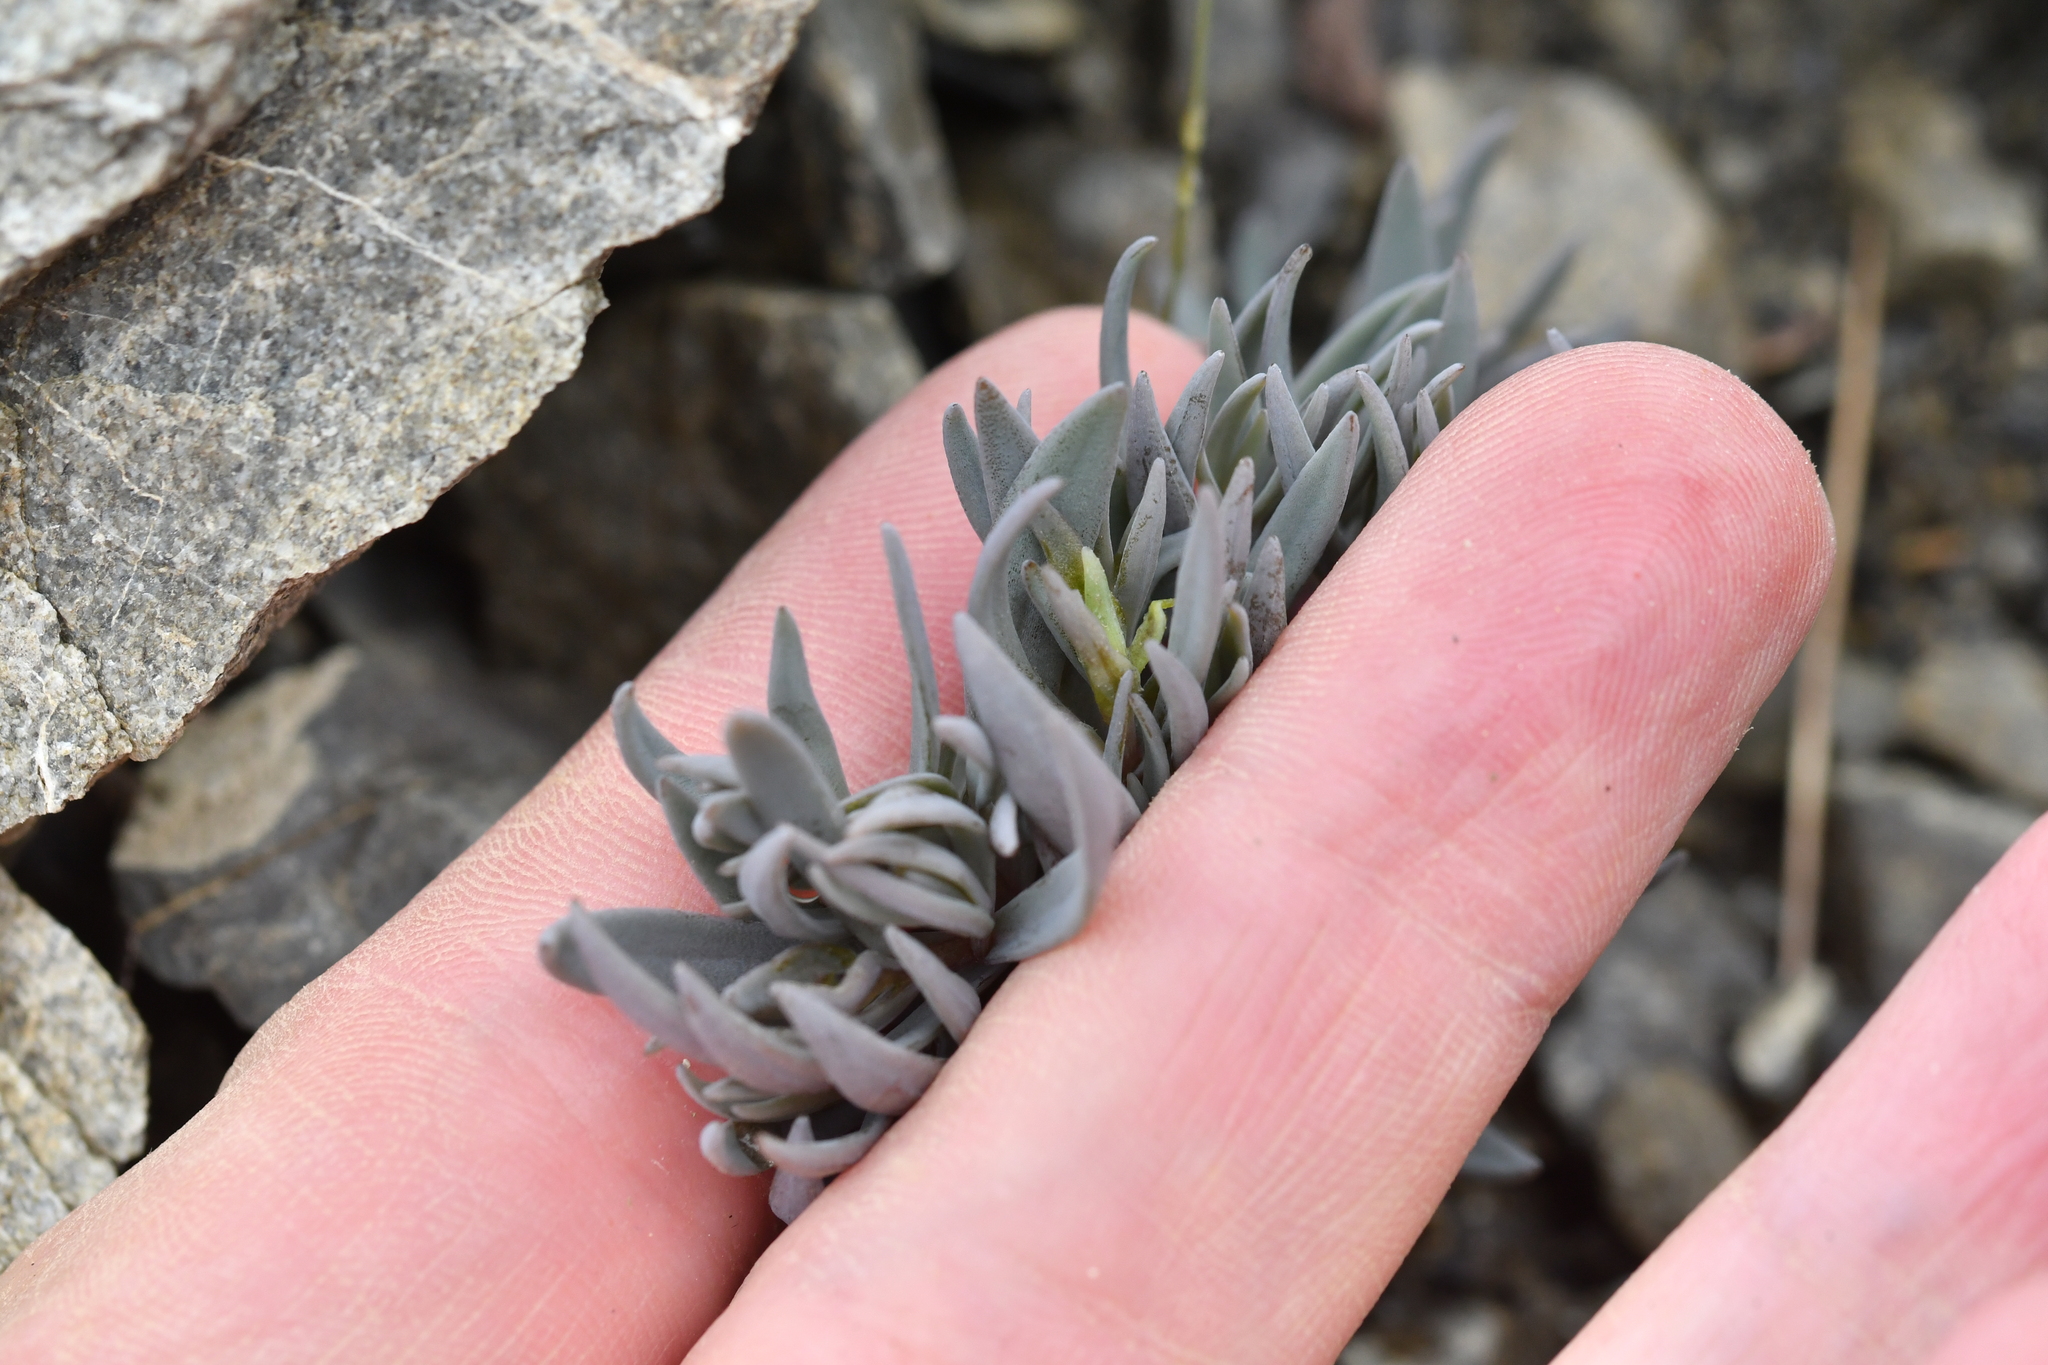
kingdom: Plantae
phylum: Tracheophyta
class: Magnoliopsida
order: Caryophyllales
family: Caryophyllaceae
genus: Stellaria
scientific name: Stellaria roughii
